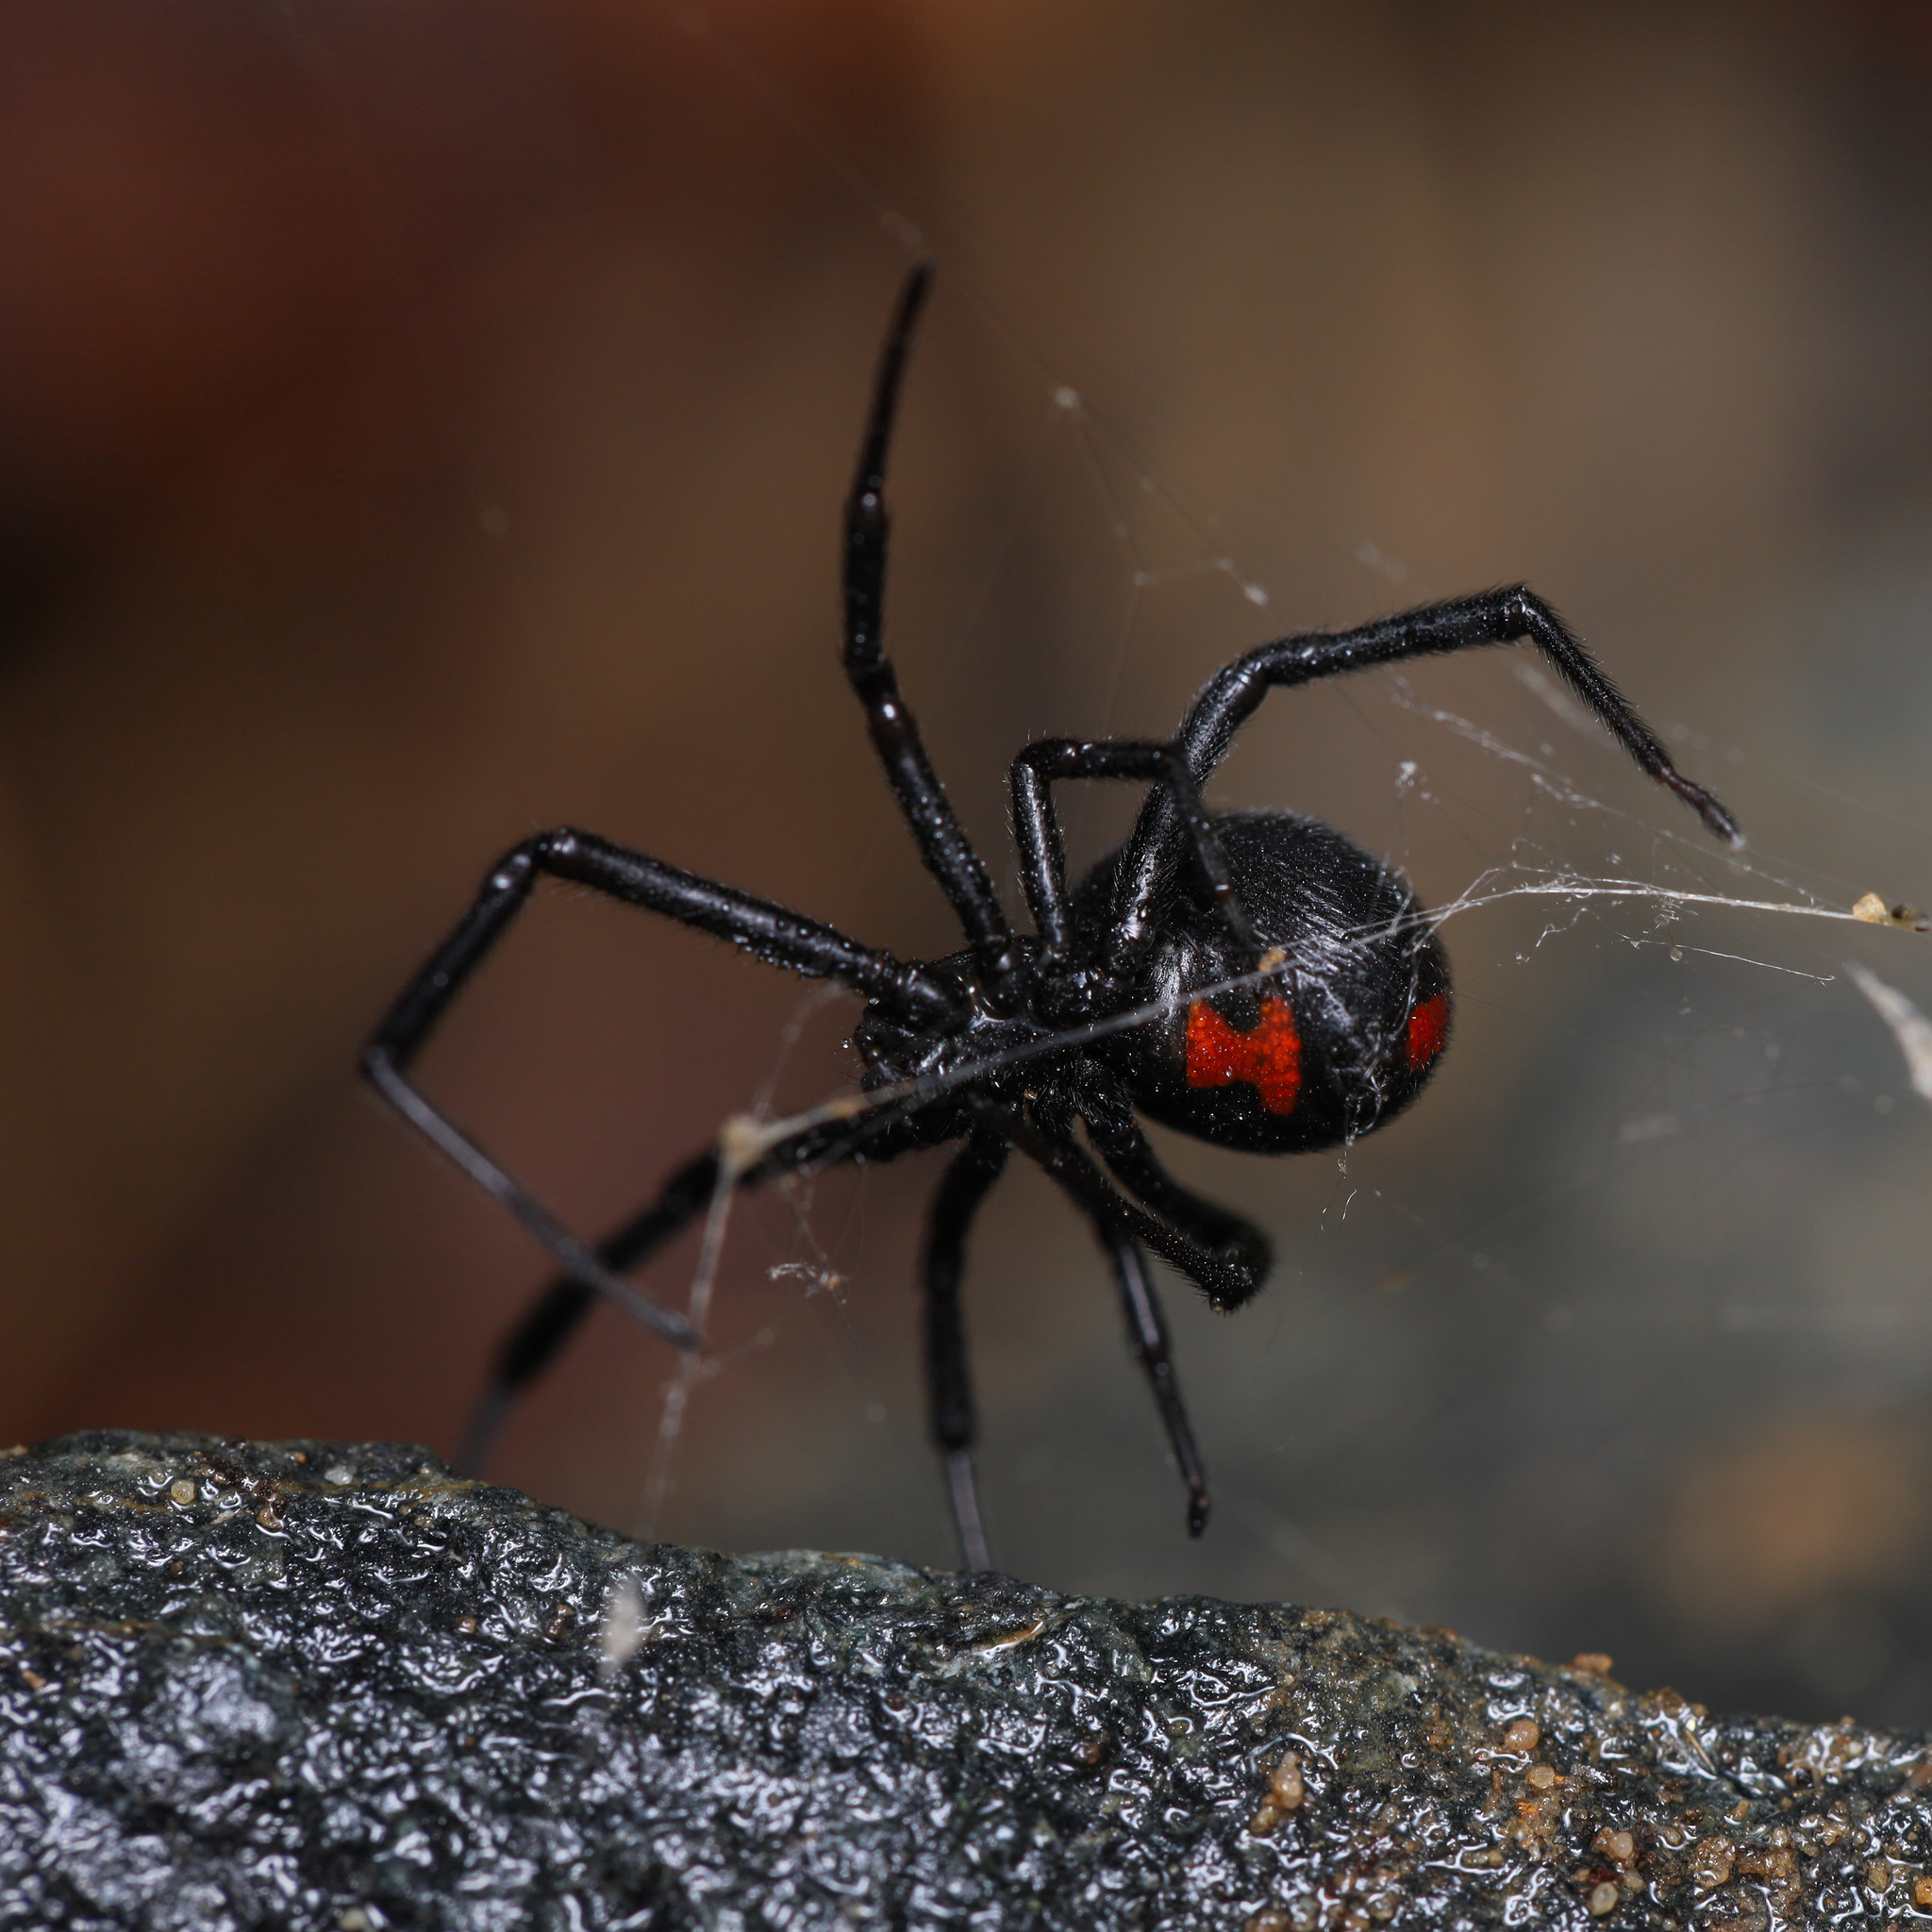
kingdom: Animalia
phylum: Arthropoda
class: Arachnida
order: Araneae
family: Theridiidae
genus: Latrodectus
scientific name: Latrodectus mactans
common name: Cobweb spiders
